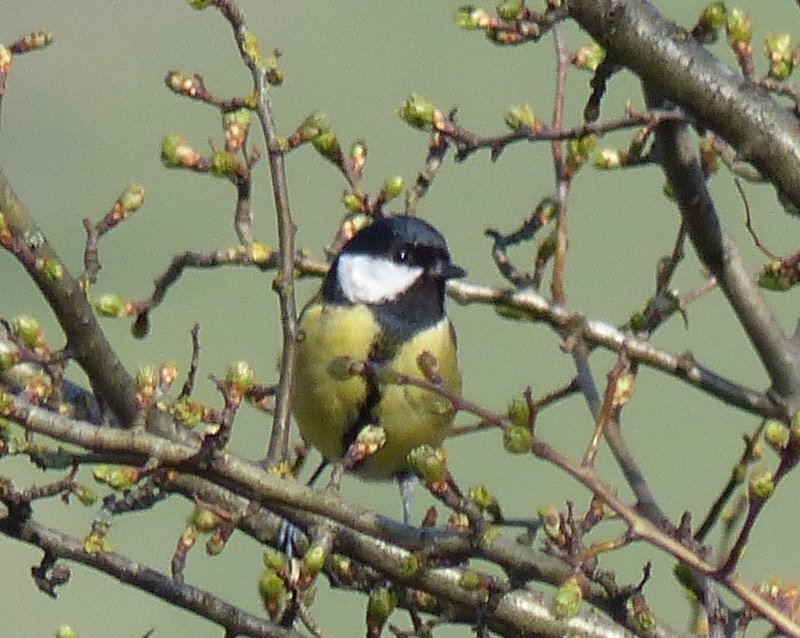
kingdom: Animalia
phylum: Chordata
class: Aves
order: Passeriformes
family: Paridae
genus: Parus
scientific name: Parus major
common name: Great tit
